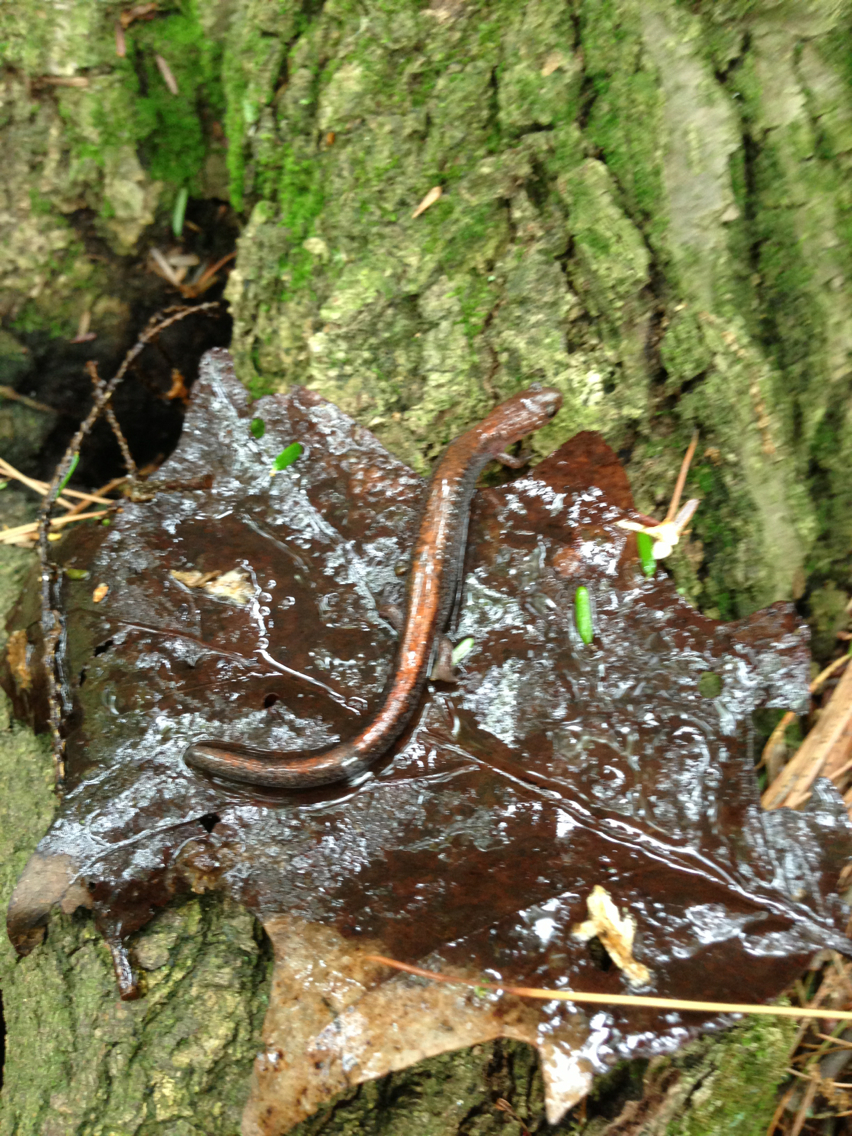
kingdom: Animalia
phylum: Chordata
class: Amphibia
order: Caudata
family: Plethodontidae
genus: Plethodon
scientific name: Plethodon cinereus
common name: Redback salamander
